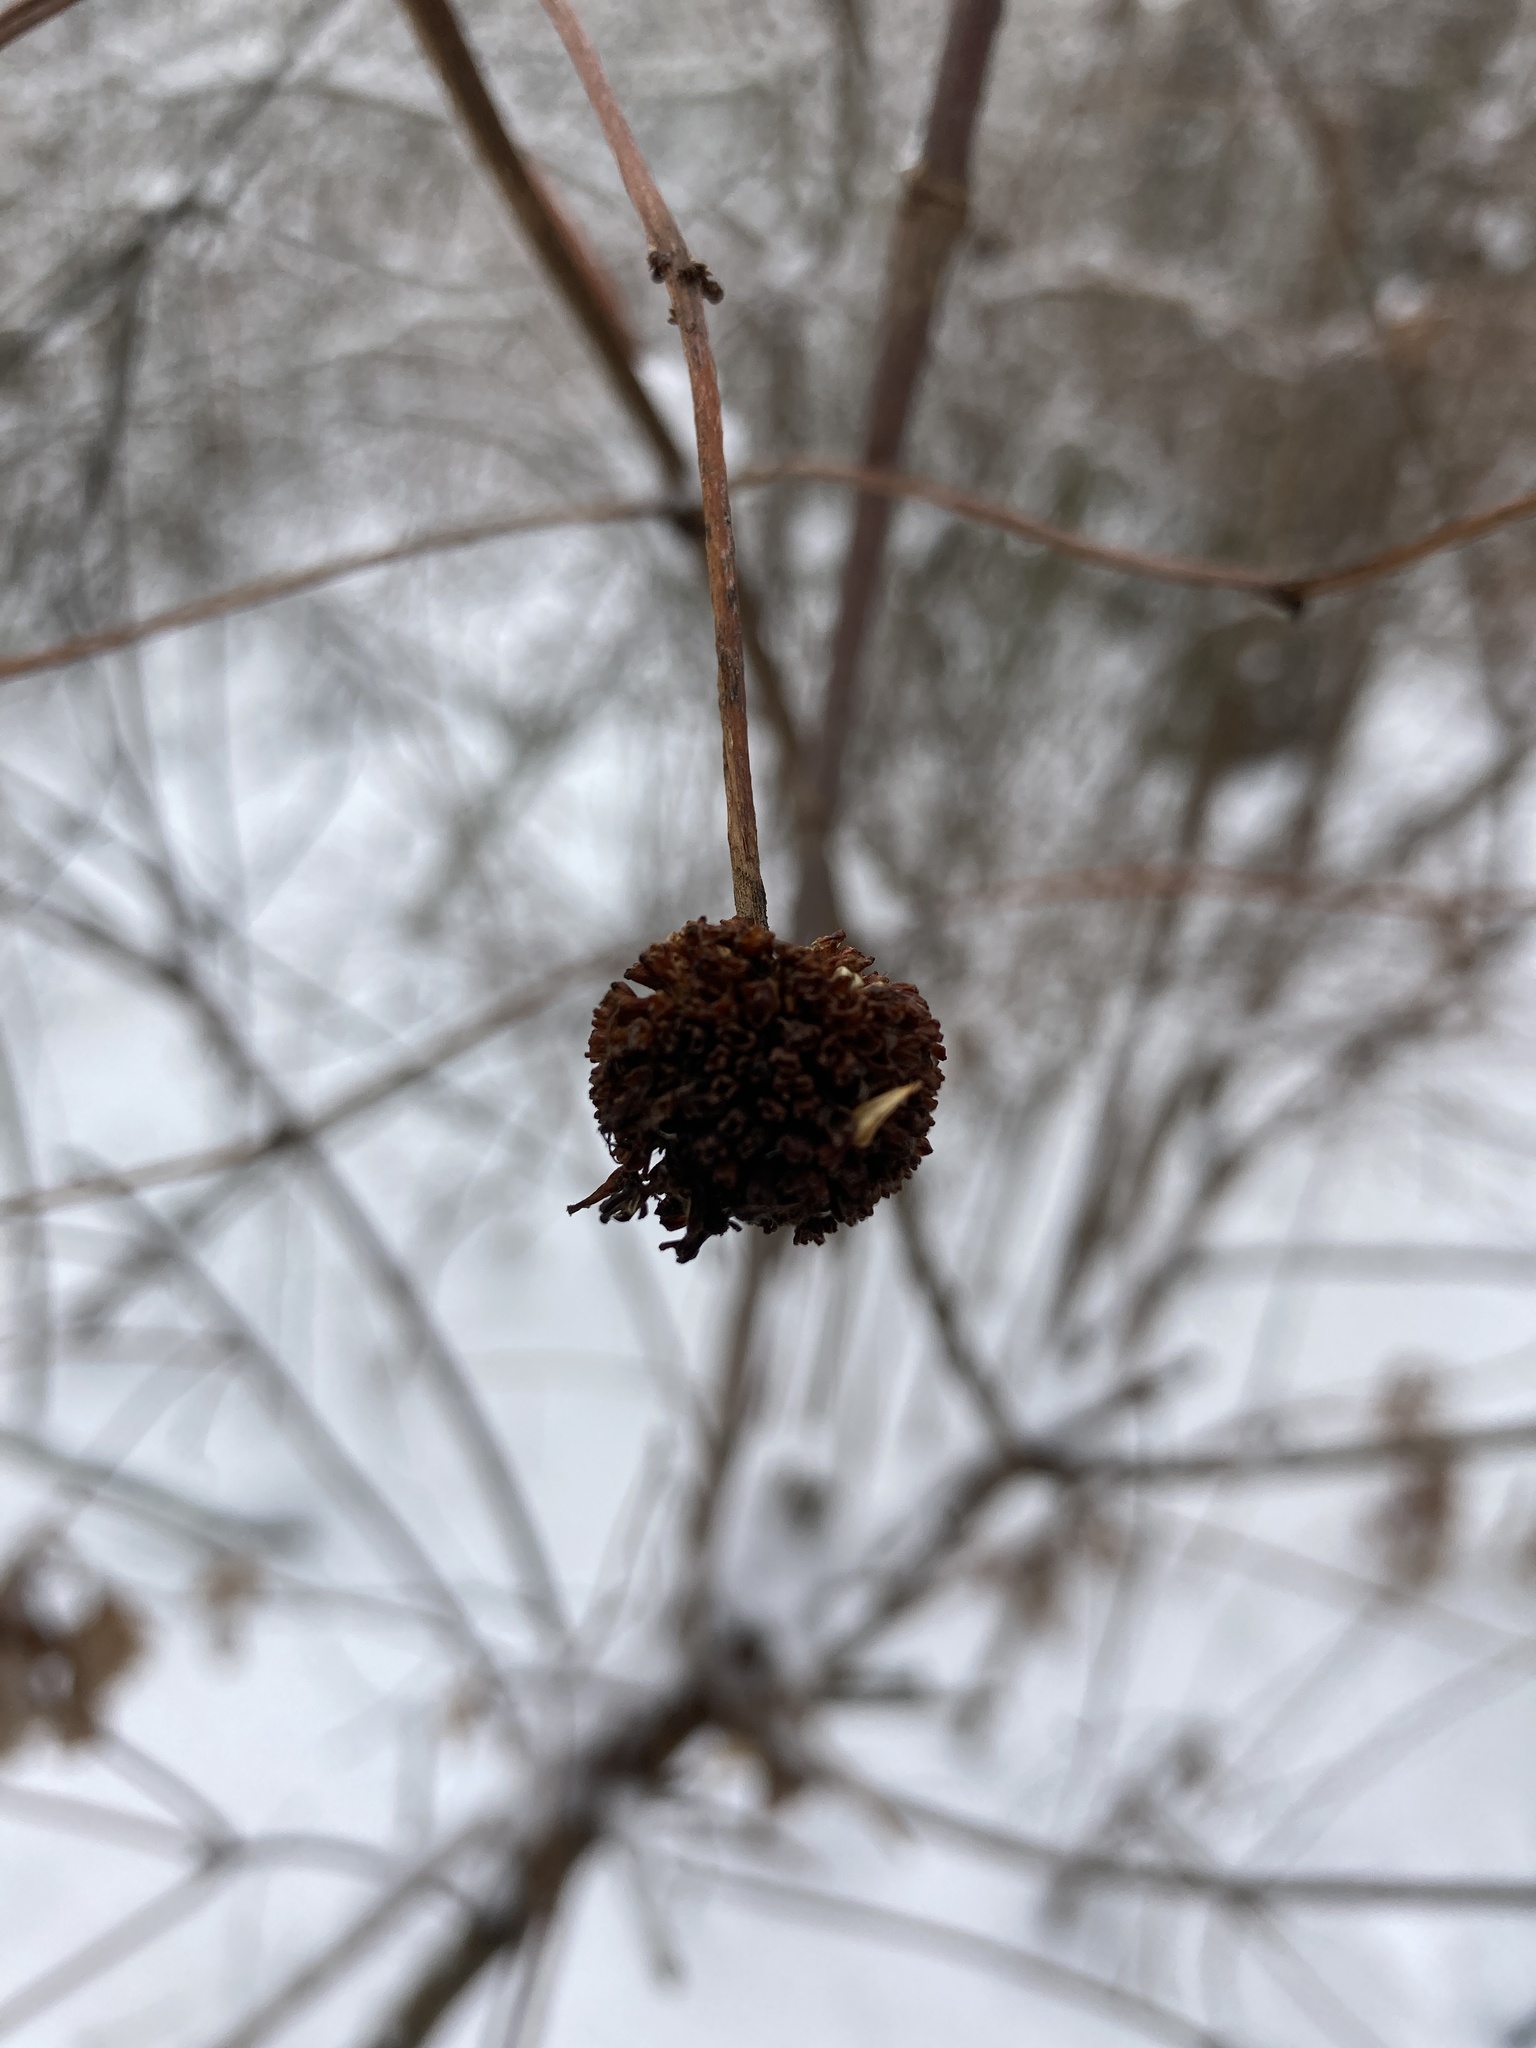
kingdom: Plantae
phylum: Tracheophyta
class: Magnoliopsida
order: Gentianales
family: Rubiaceae
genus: Cephalanthus
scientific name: Cephalanthus occidentalis
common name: Button-willow
